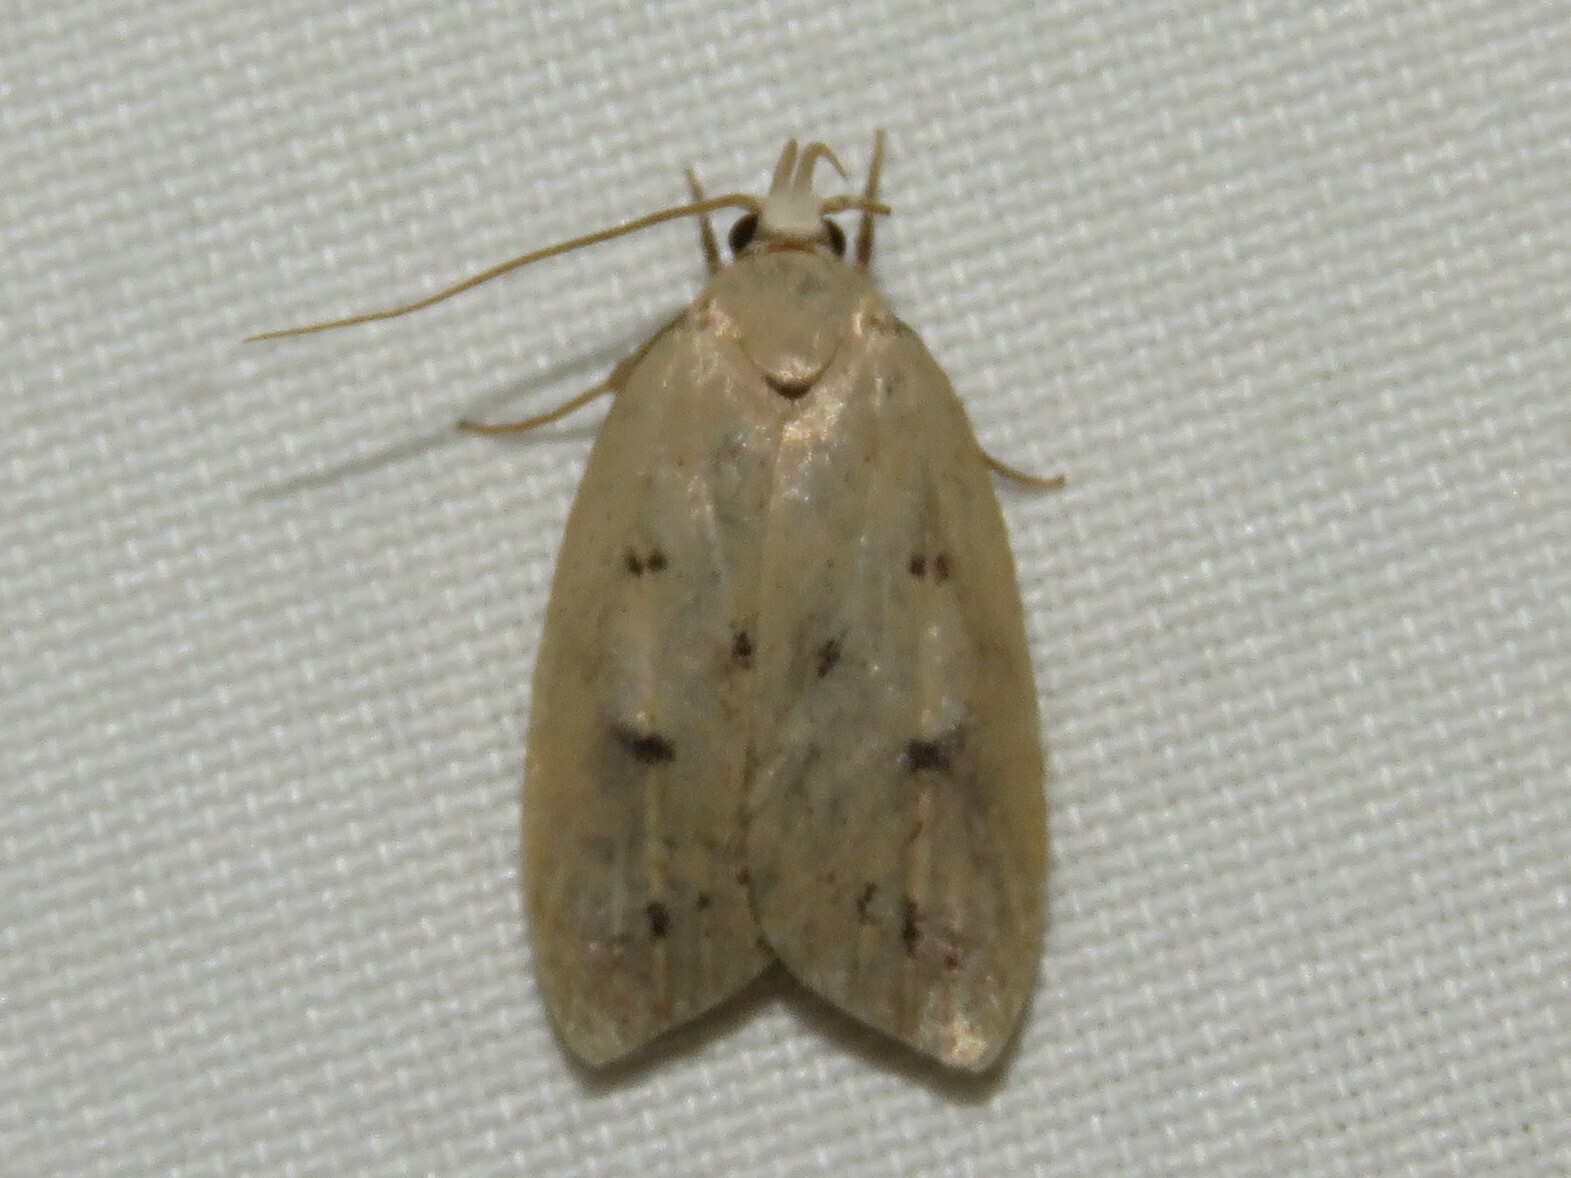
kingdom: Animalia
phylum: Arthropoda
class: Insecta
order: Lepidoptera
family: Peleopodidae
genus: Machimia
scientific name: Machimia tentoriferella
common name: Gold-striped leaftier moth
